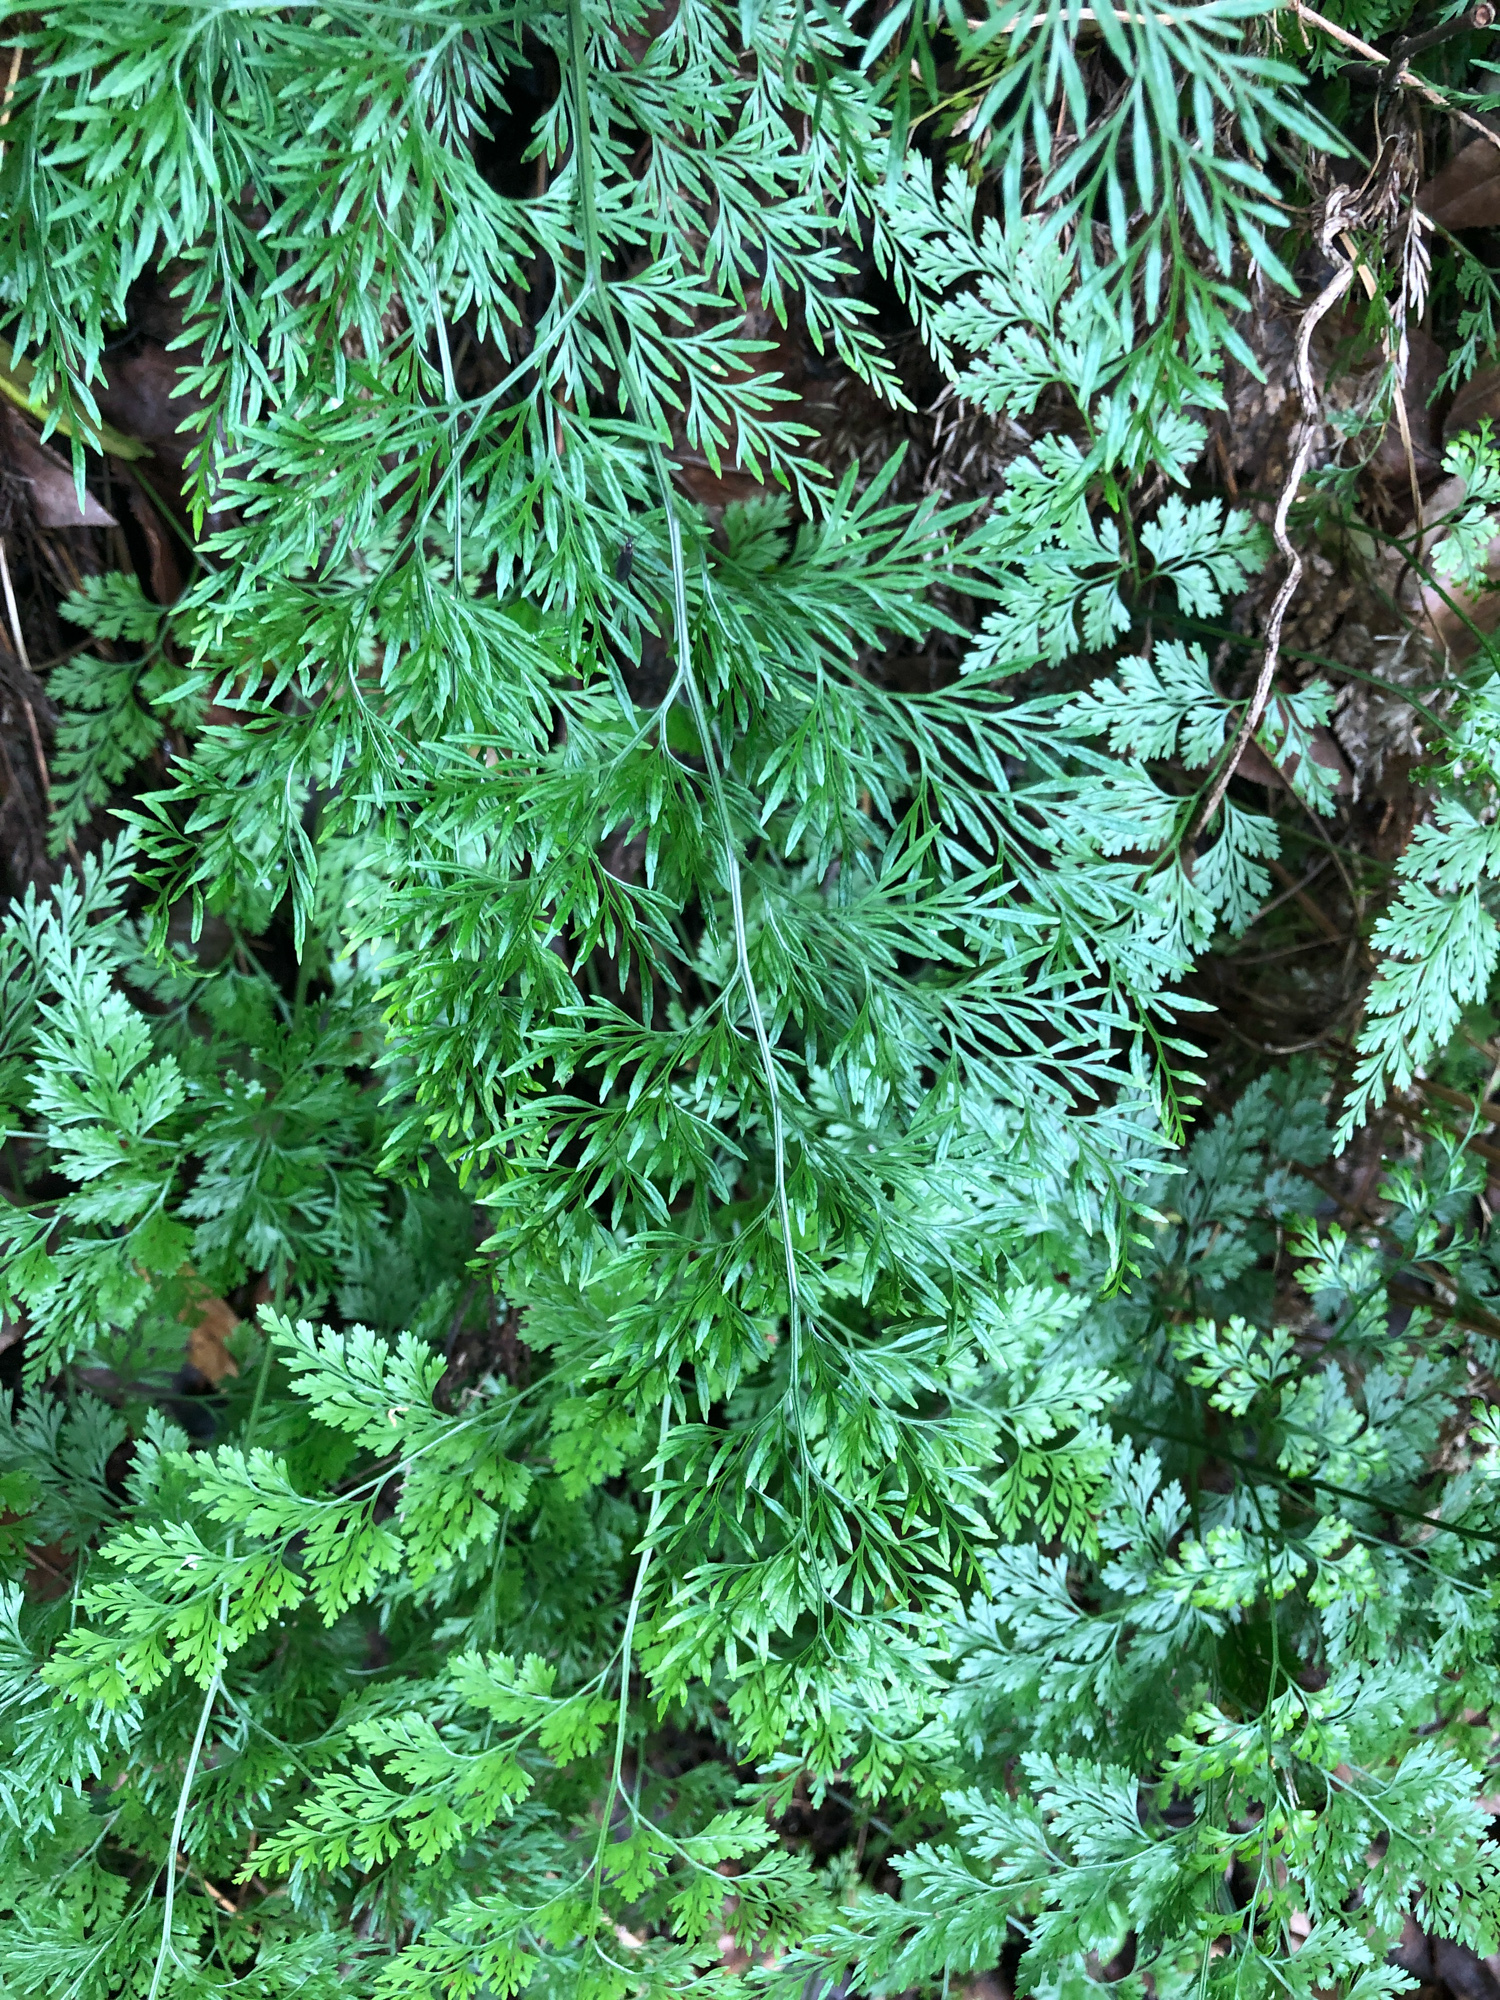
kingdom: Plantae
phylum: Tracheophyta
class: Polypodiopsida
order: Polypodiales
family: Pteridaceae
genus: Onychium
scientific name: Onychium japonicum
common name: Carrot fern
